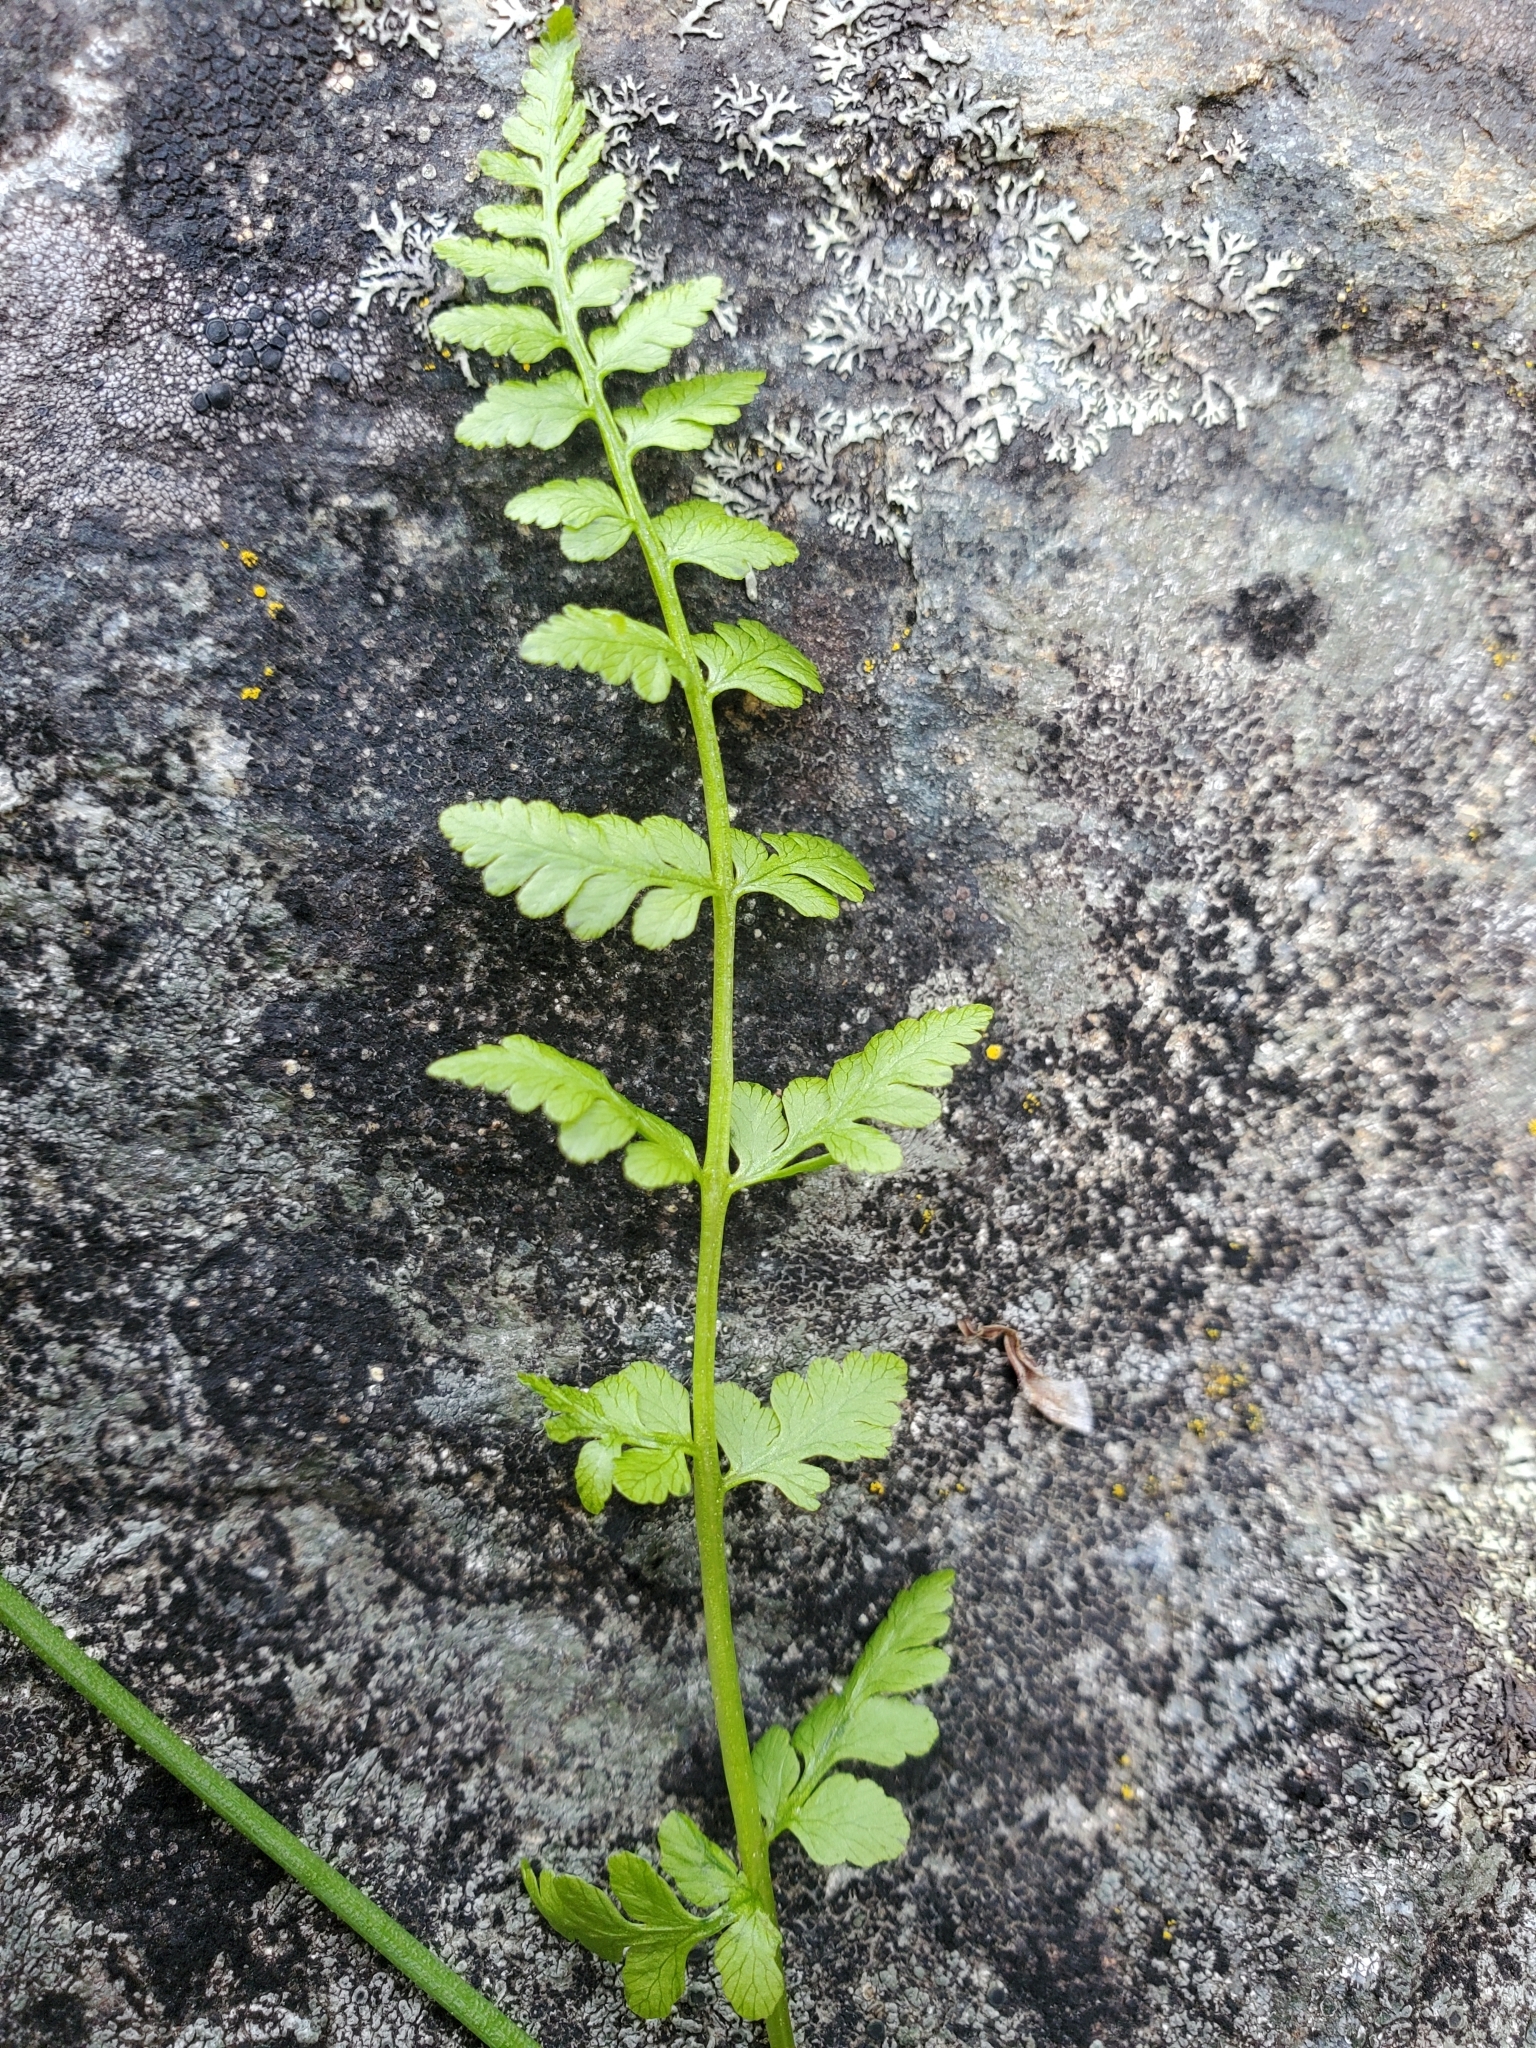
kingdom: Plantae
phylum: Tracheophyta
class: Polypodiopsida
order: Polypodiales
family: Cystopteridaceae
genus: Cystopteris
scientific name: Cystopteris fragilis
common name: Brittle bladder fern
